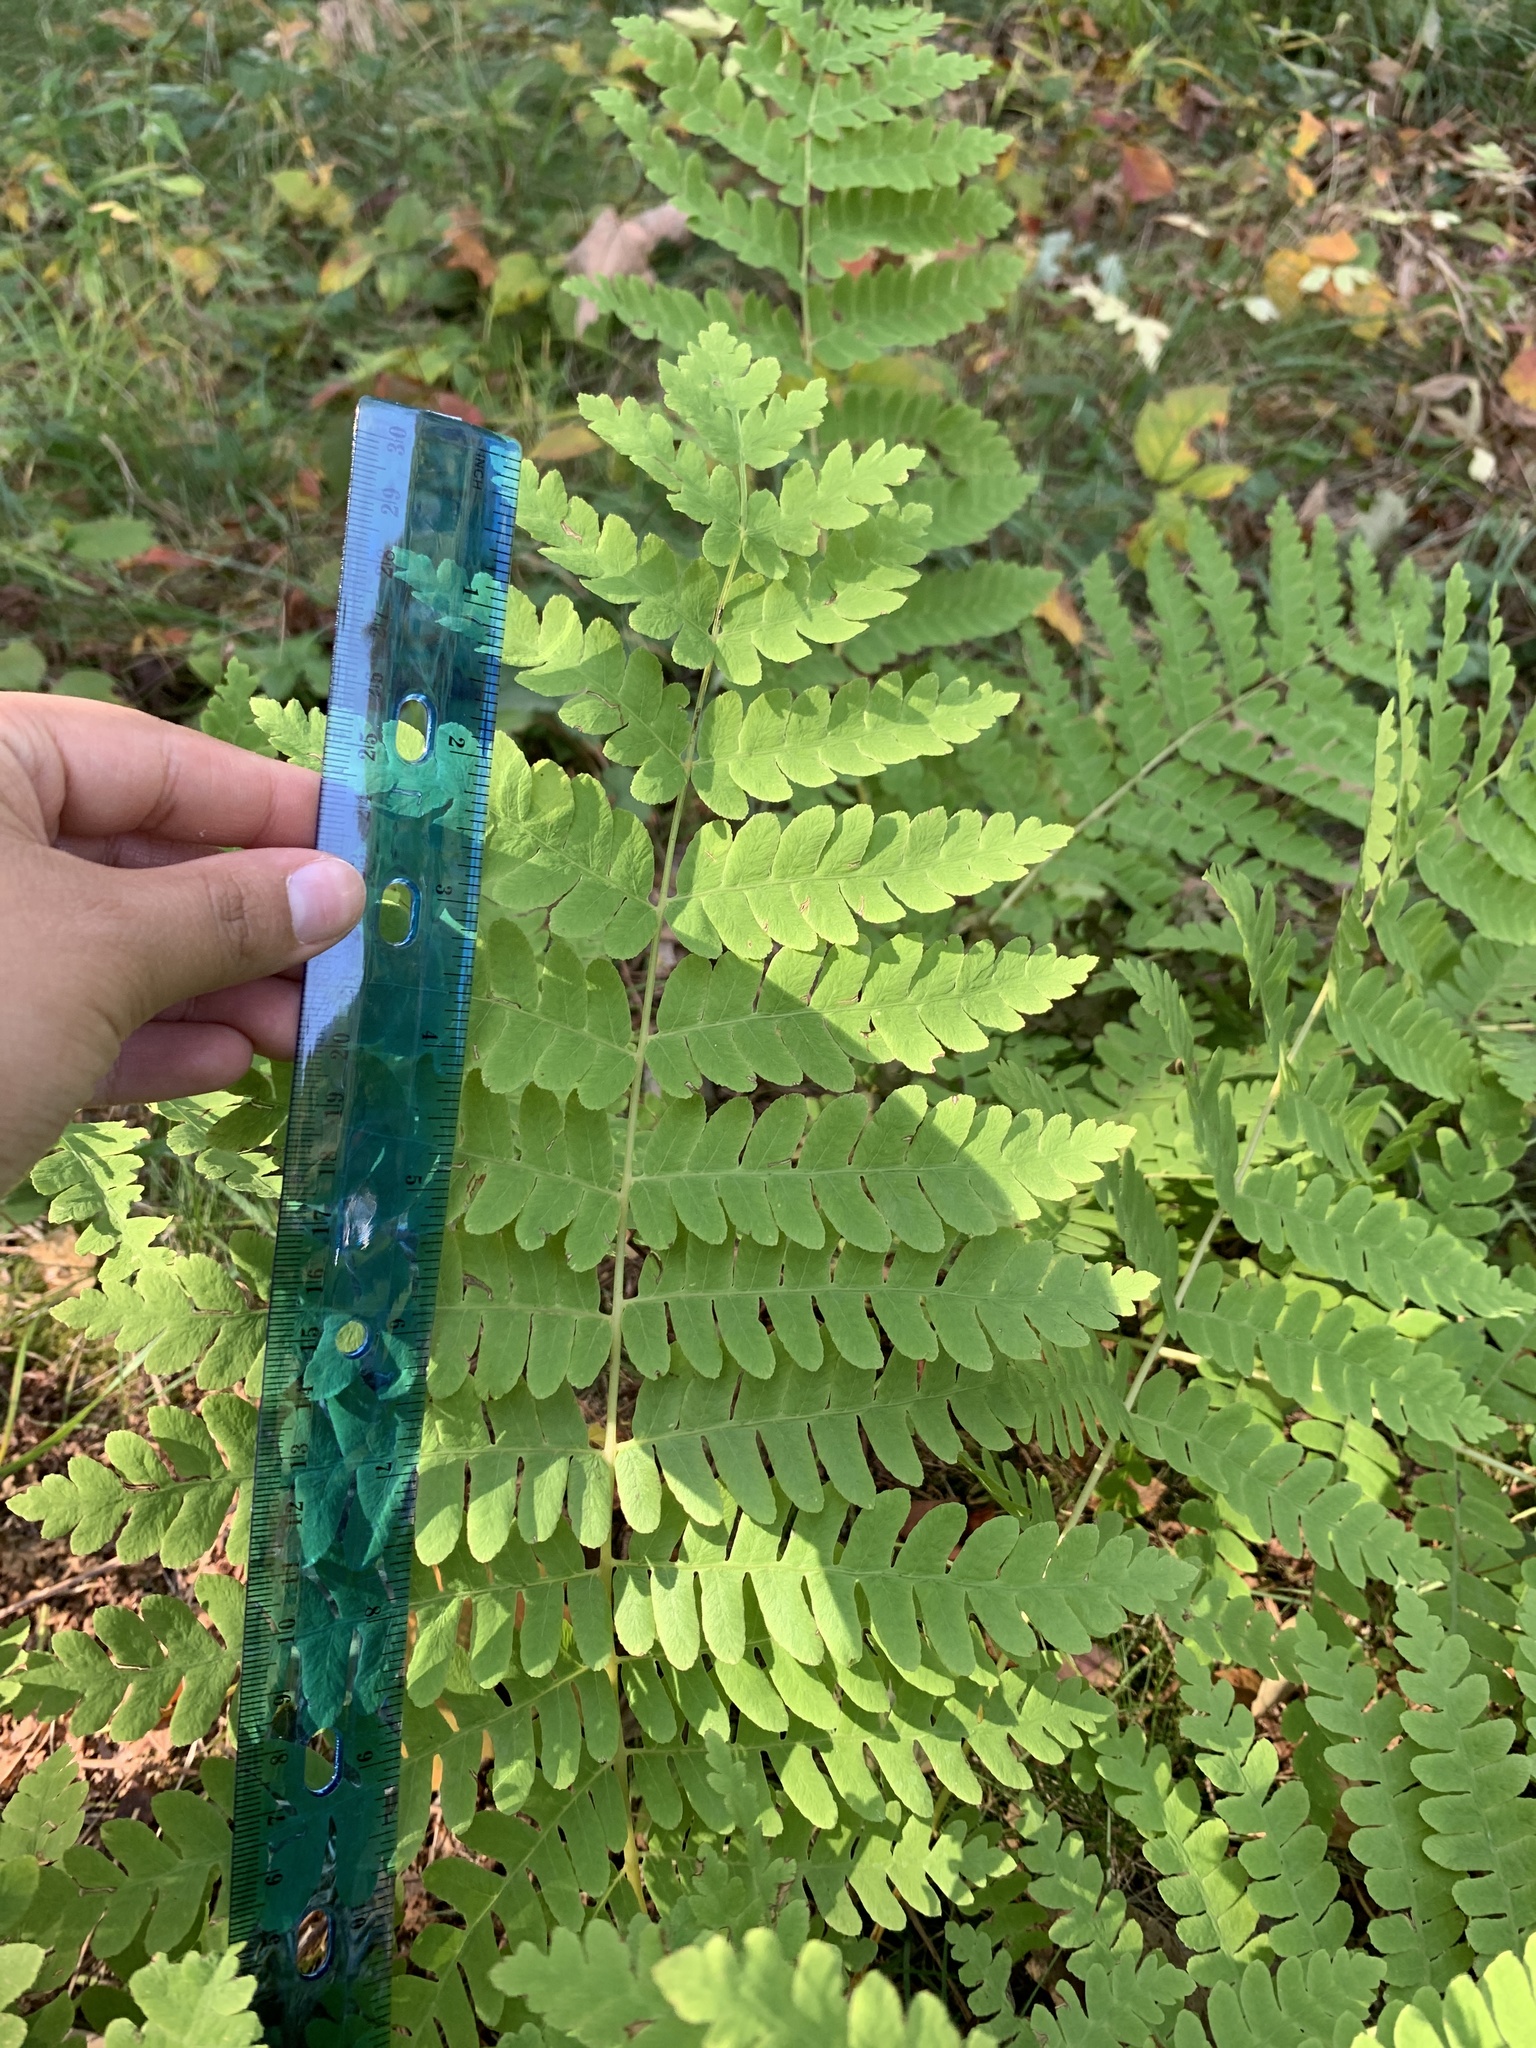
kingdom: Plantae
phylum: Tracheophyta
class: Polypodiopsida
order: Osmundales
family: Osmundaceae
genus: Claytosmunda
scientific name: Claytosmunda claytoniana
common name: Clayton's fern
